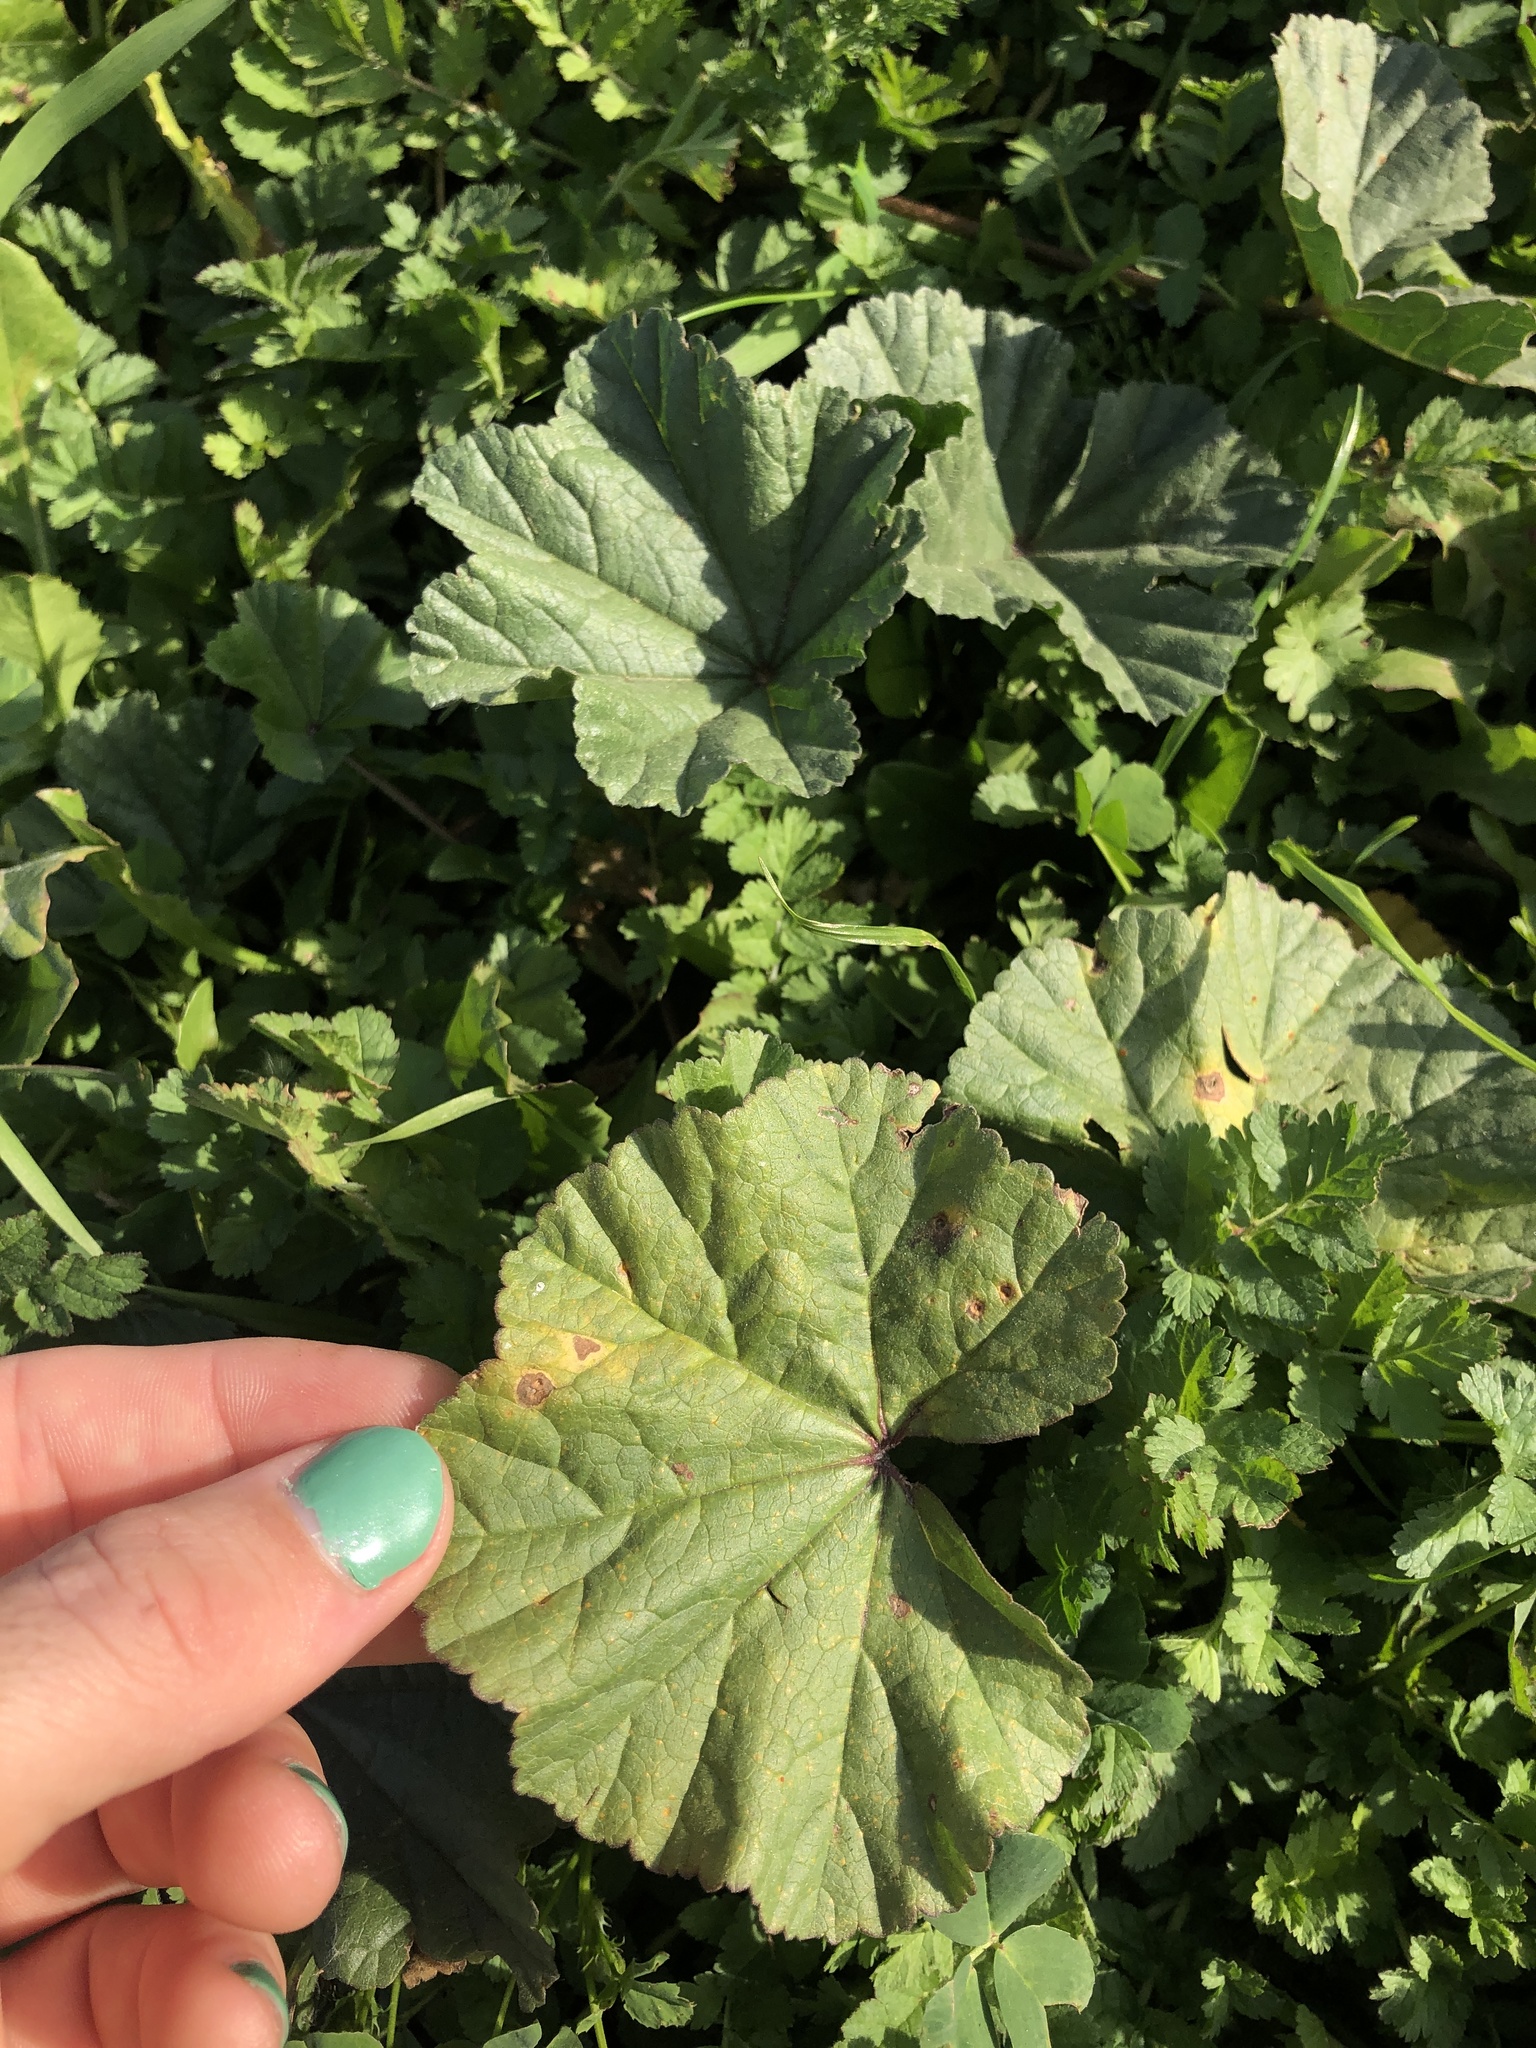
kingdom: Plantae
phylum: Tracheophyta
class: Magnoliopsida
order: Malvales
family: Malvaceae
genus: Malva
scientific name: Malva
